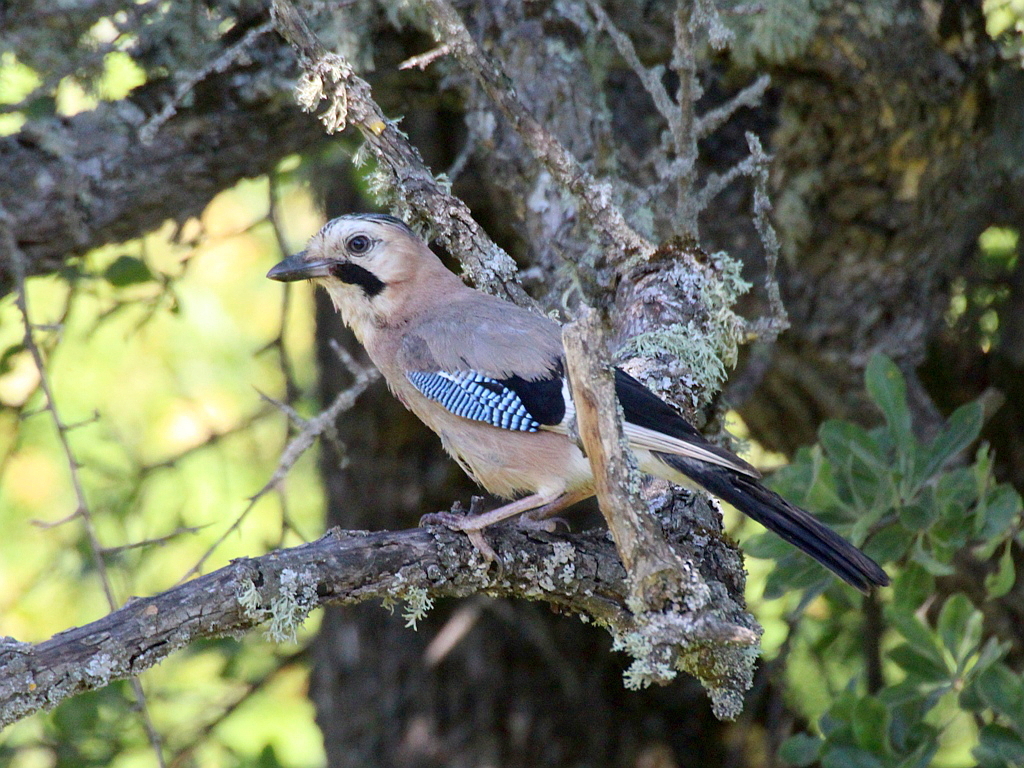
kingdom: Animalia
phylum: Chordata
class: Aves
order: Passeriformes
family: Corvidae
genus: Garrulus
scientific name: Garrulus glandarius
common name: Eurasian jay
